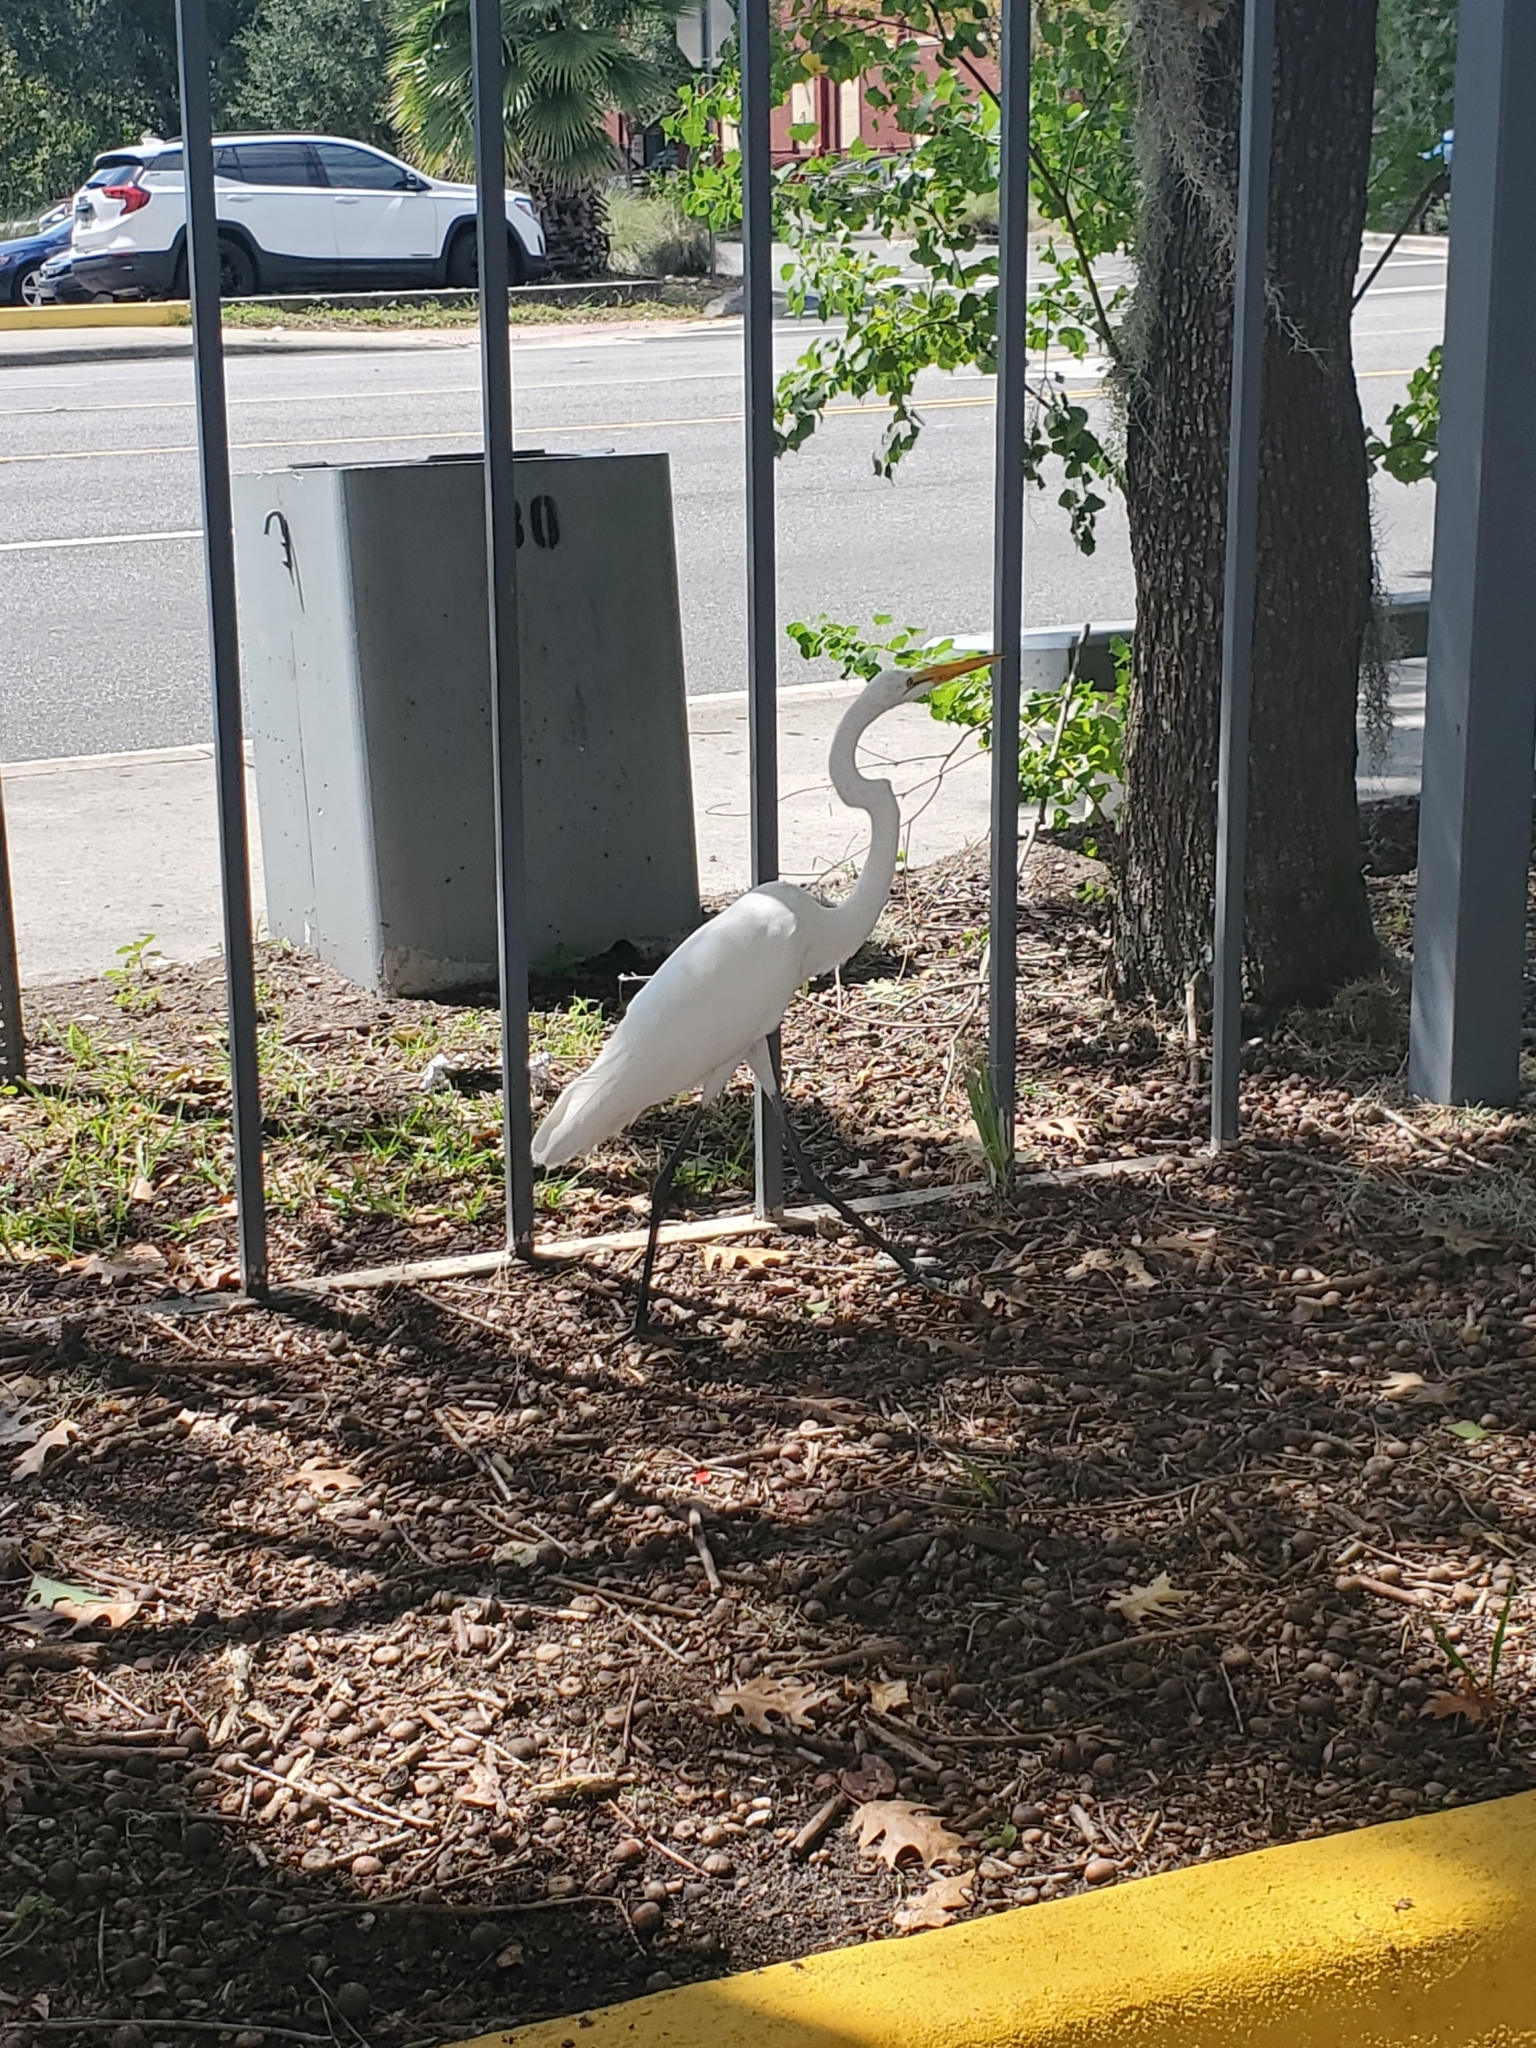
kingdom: Animalia
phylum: Chordata
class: Aves
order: Pelecaniformes
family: Ardeidae
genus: Ardea
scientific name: Ardea alba
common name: Great egret
